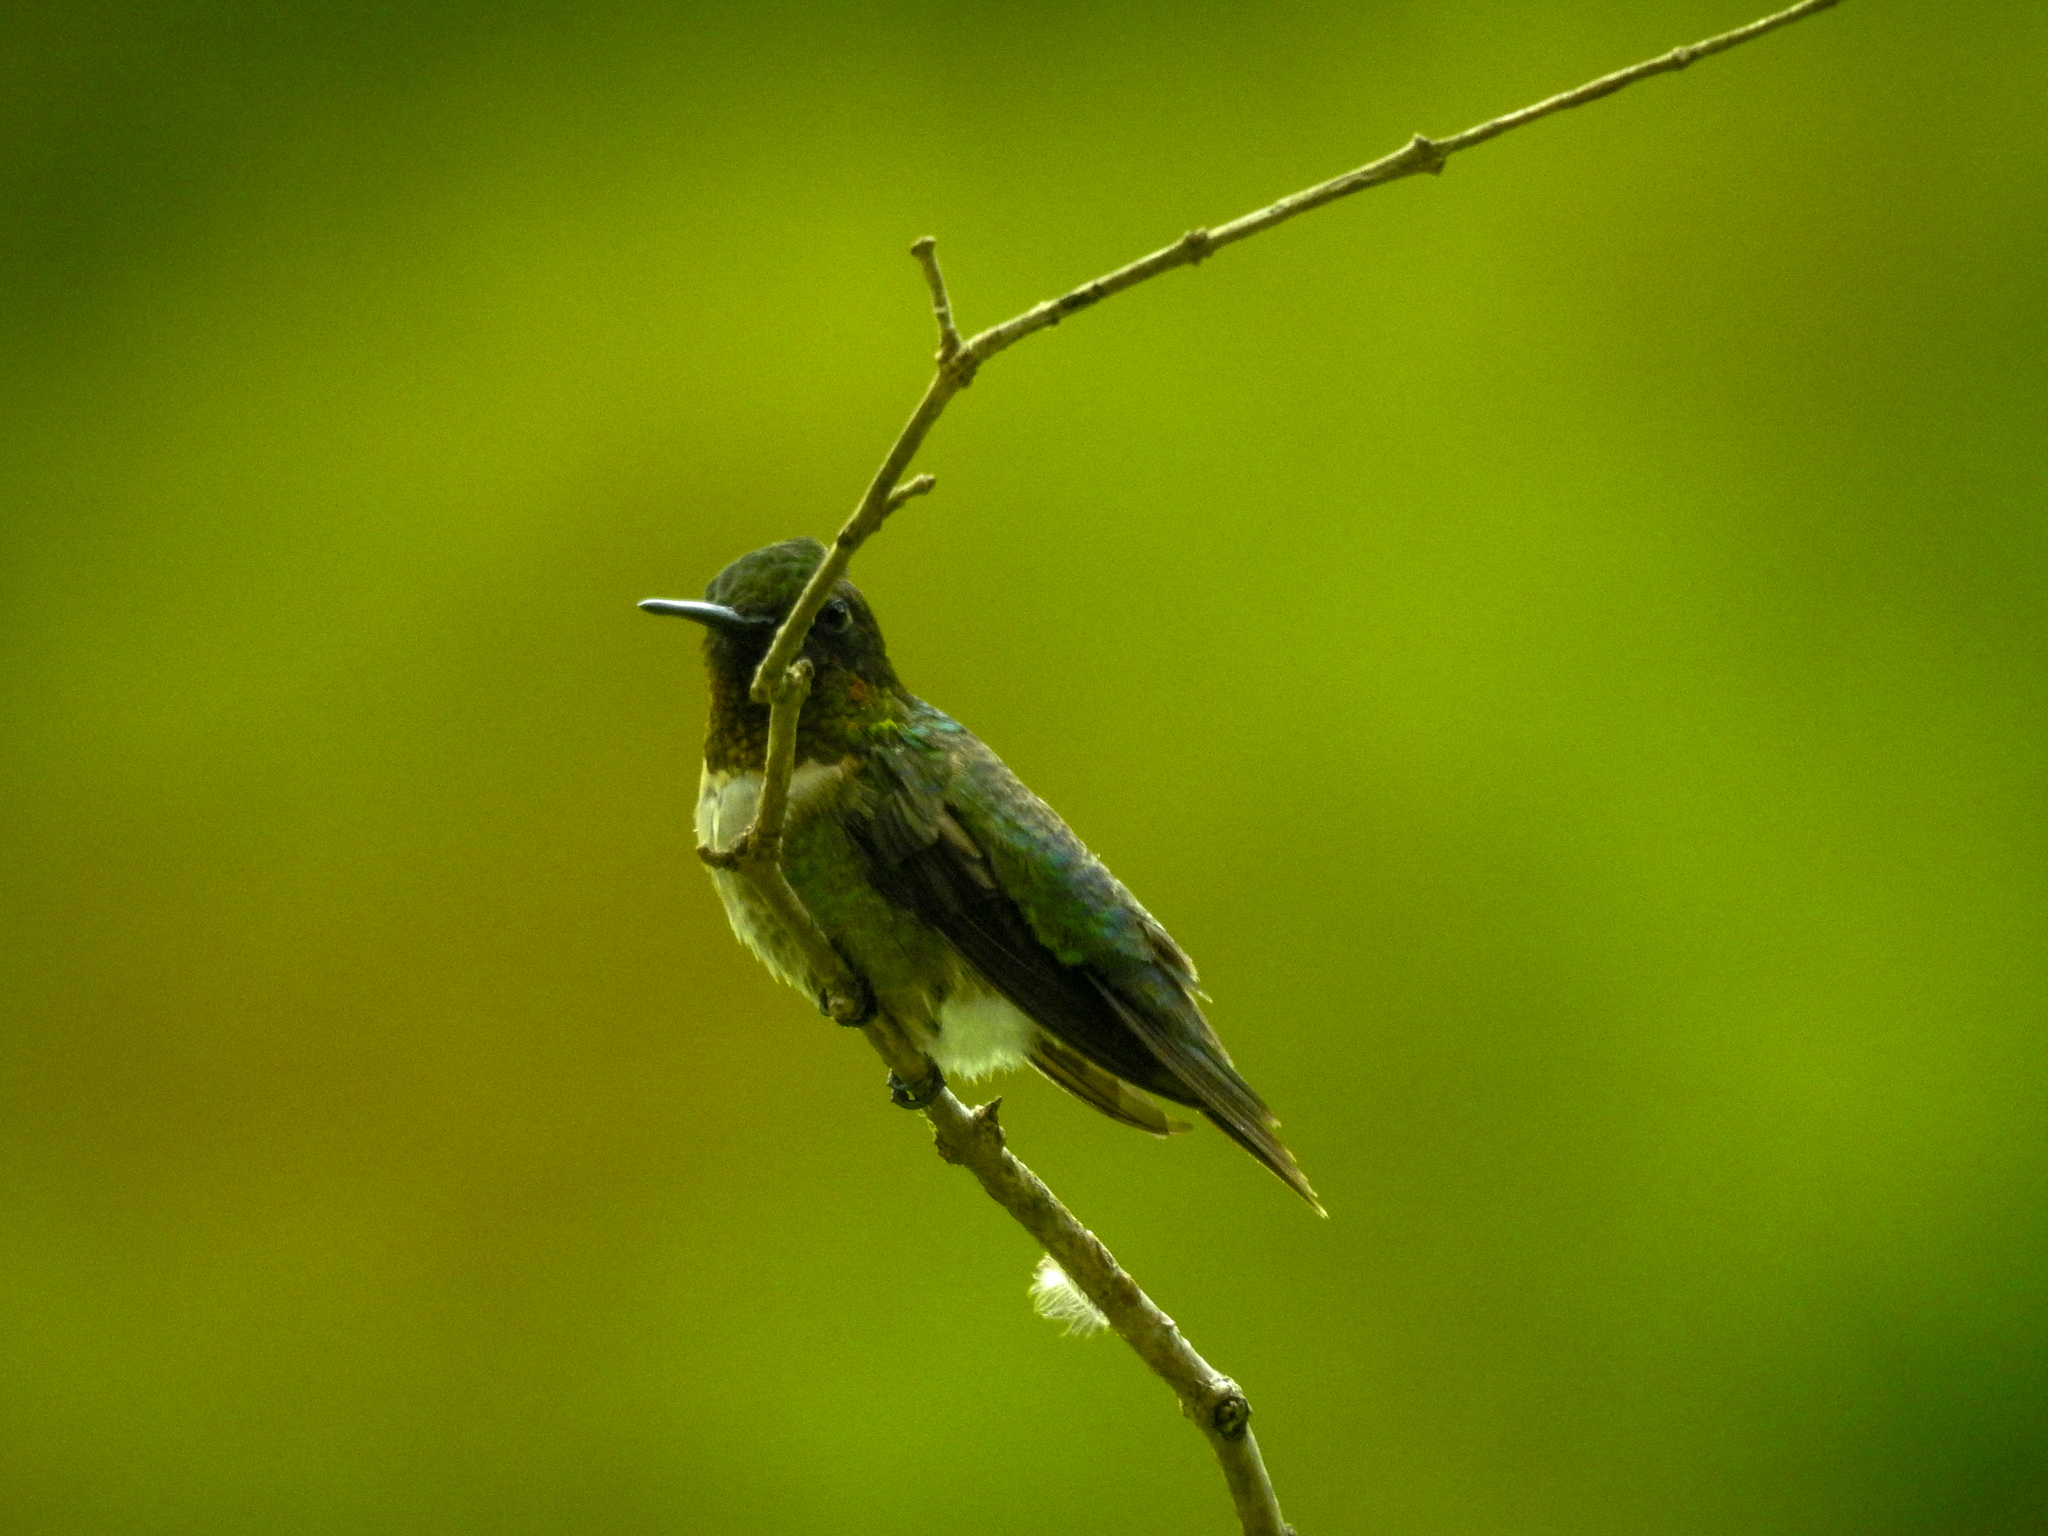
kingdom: Animalia
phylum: Chordata
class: Aves
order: Apodiformes
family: Trochilidae
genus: Archilochus
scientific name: Archilochus colubris
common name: Ruby-throated hummingbird
